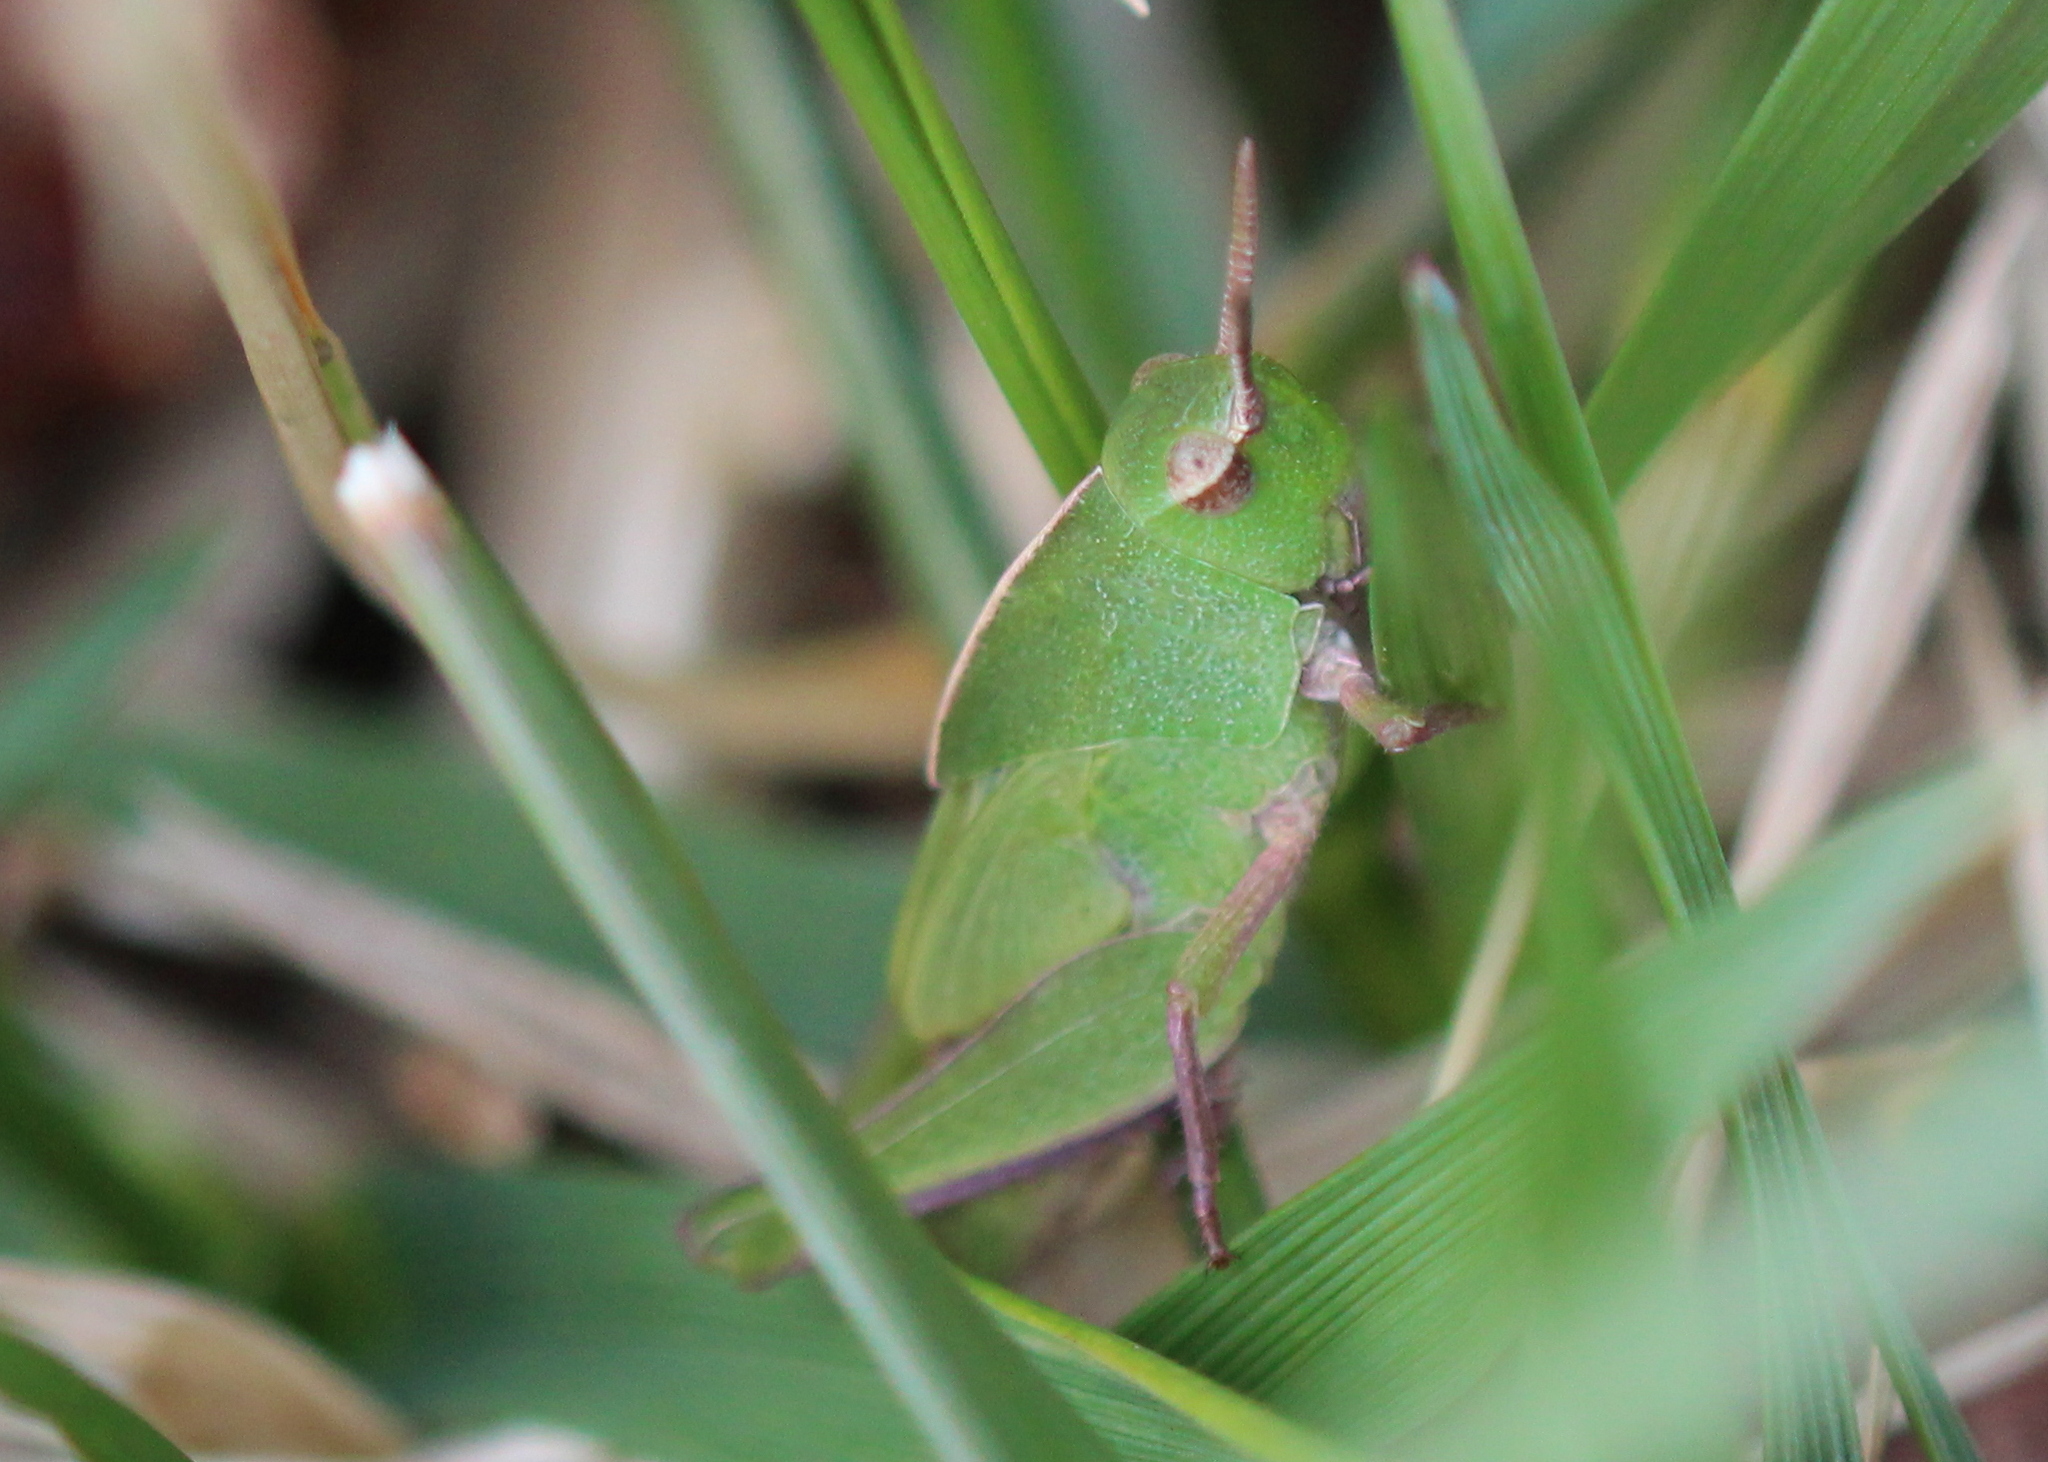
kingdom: Animalia
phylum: Arthropoda
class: Insecta
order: Orthoptera
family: Acrididae
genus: Chortophaga
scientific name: Chortophaga viridifasciata
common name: Green-striped grasshopper
